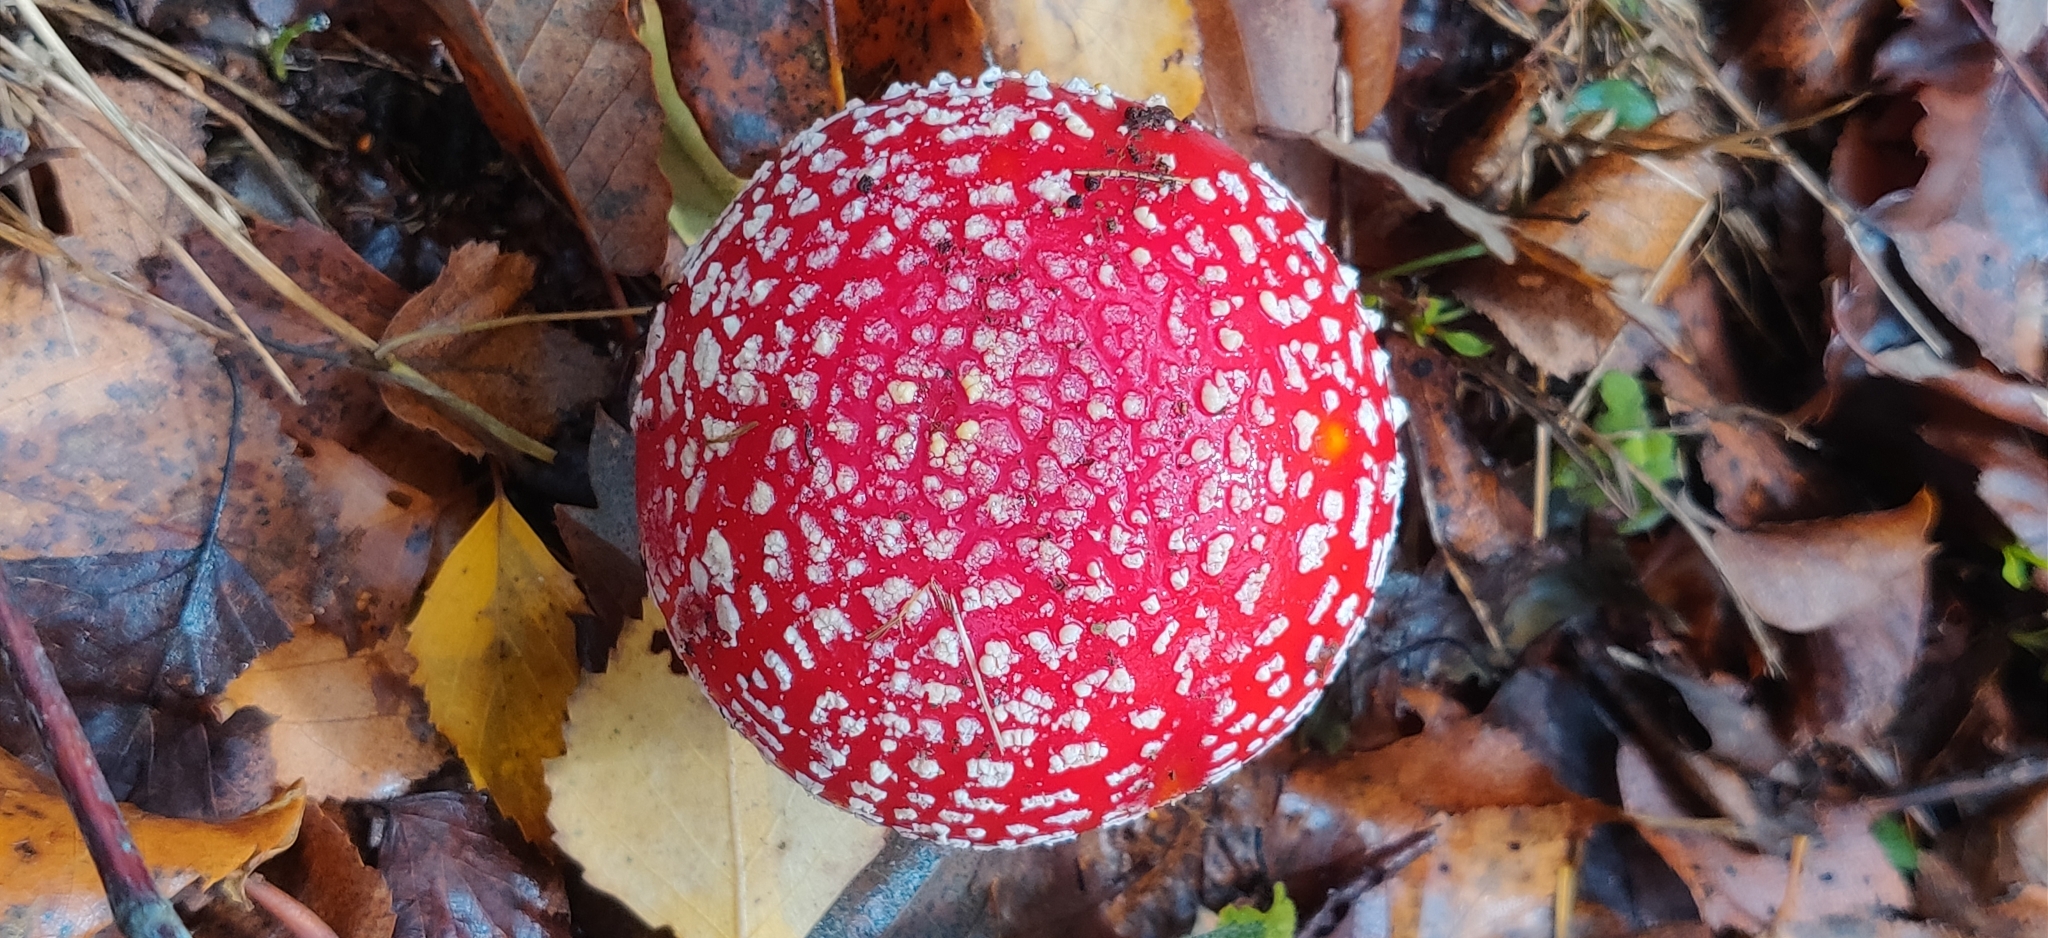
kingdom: Fungi
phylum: Basidiomycota
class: Agaricomycetes
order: Agaricales
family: Amanitaceae
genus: Amanita
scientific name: Amanita muscaria
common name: Fly agaric
